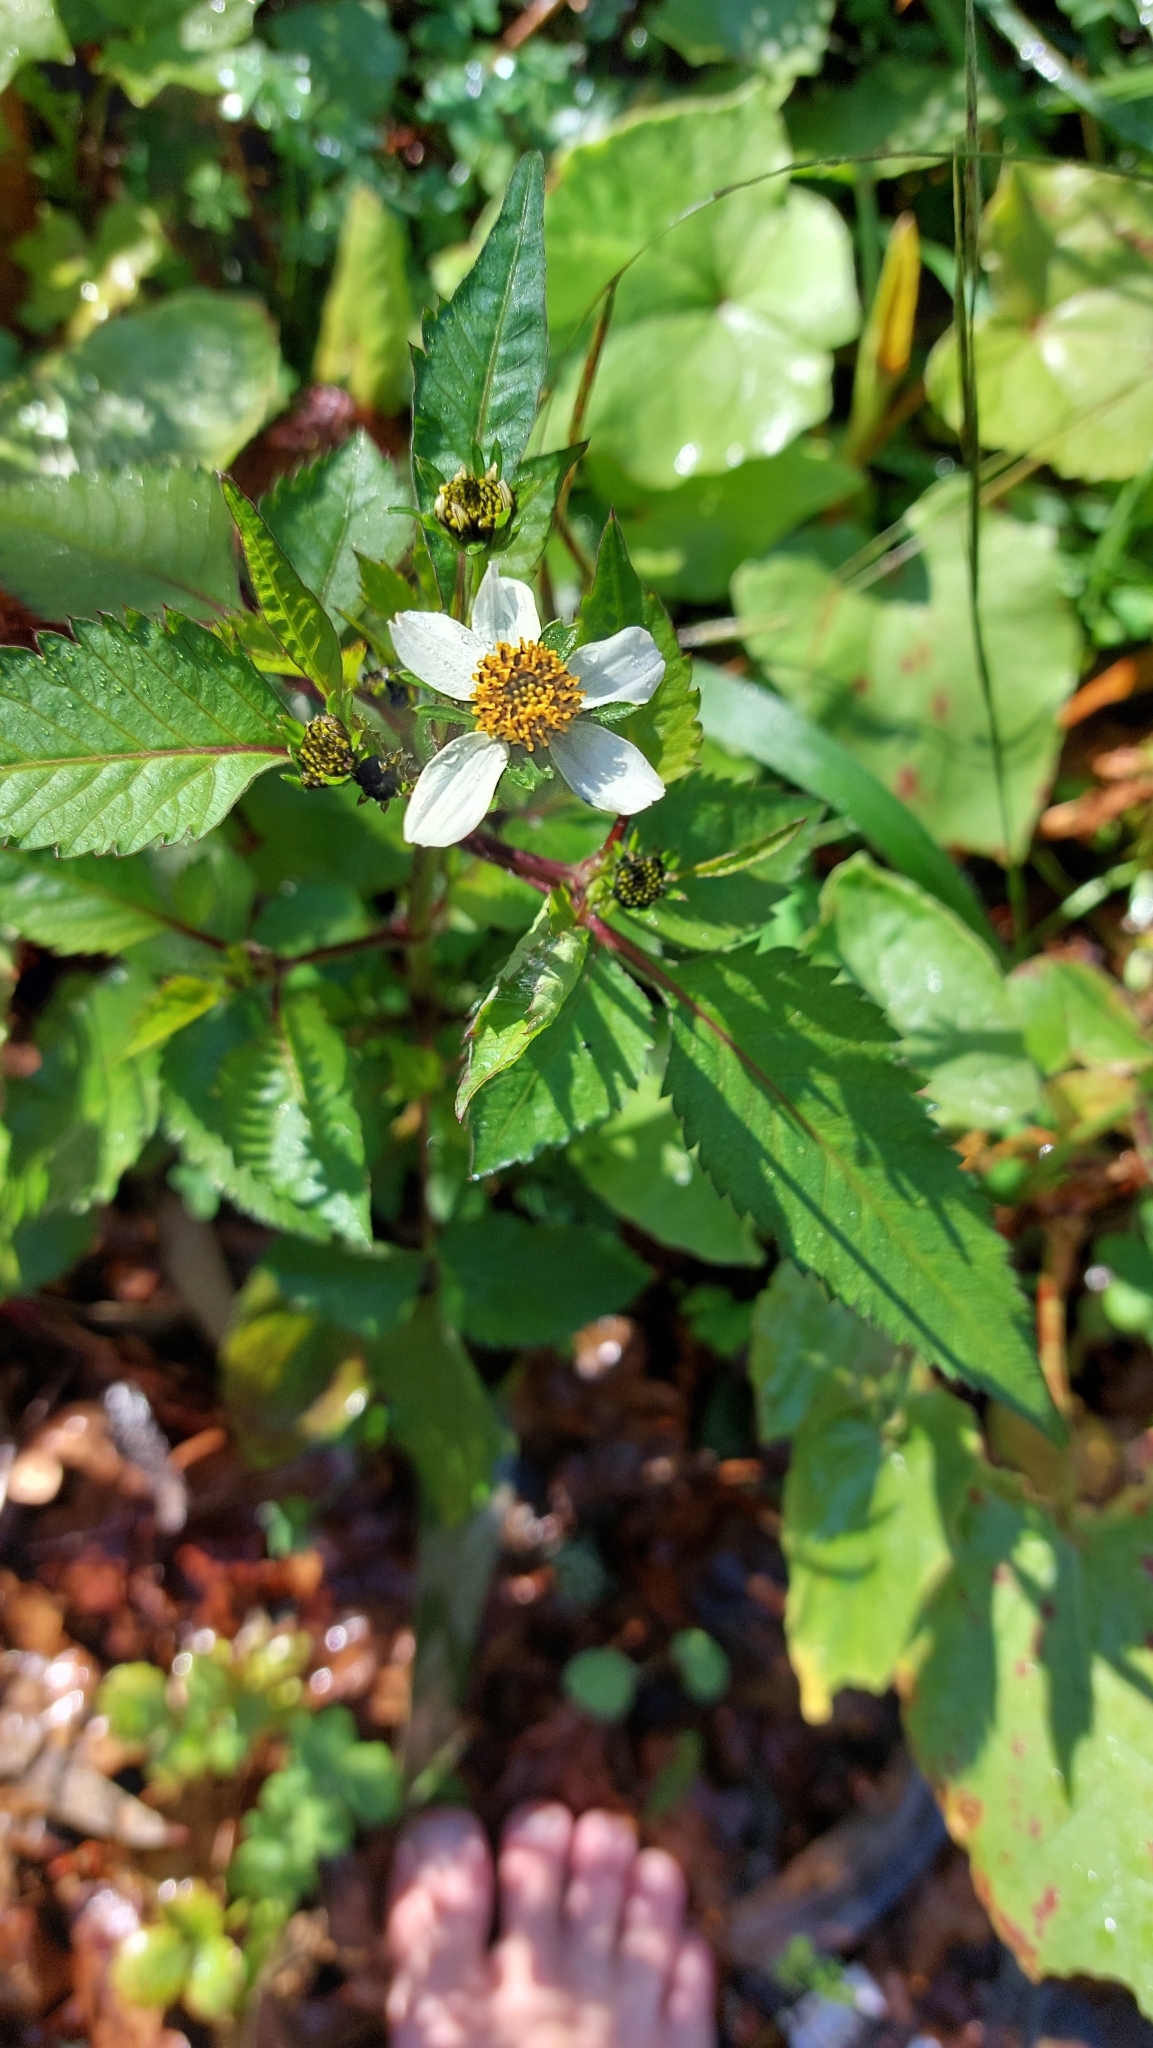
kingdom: Plantae
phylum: Tracheophyta
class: Magnoliopsida
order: Asterales
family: Asteraceae
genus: Bidens
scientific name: Bidens pilosa
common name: Black-jack
